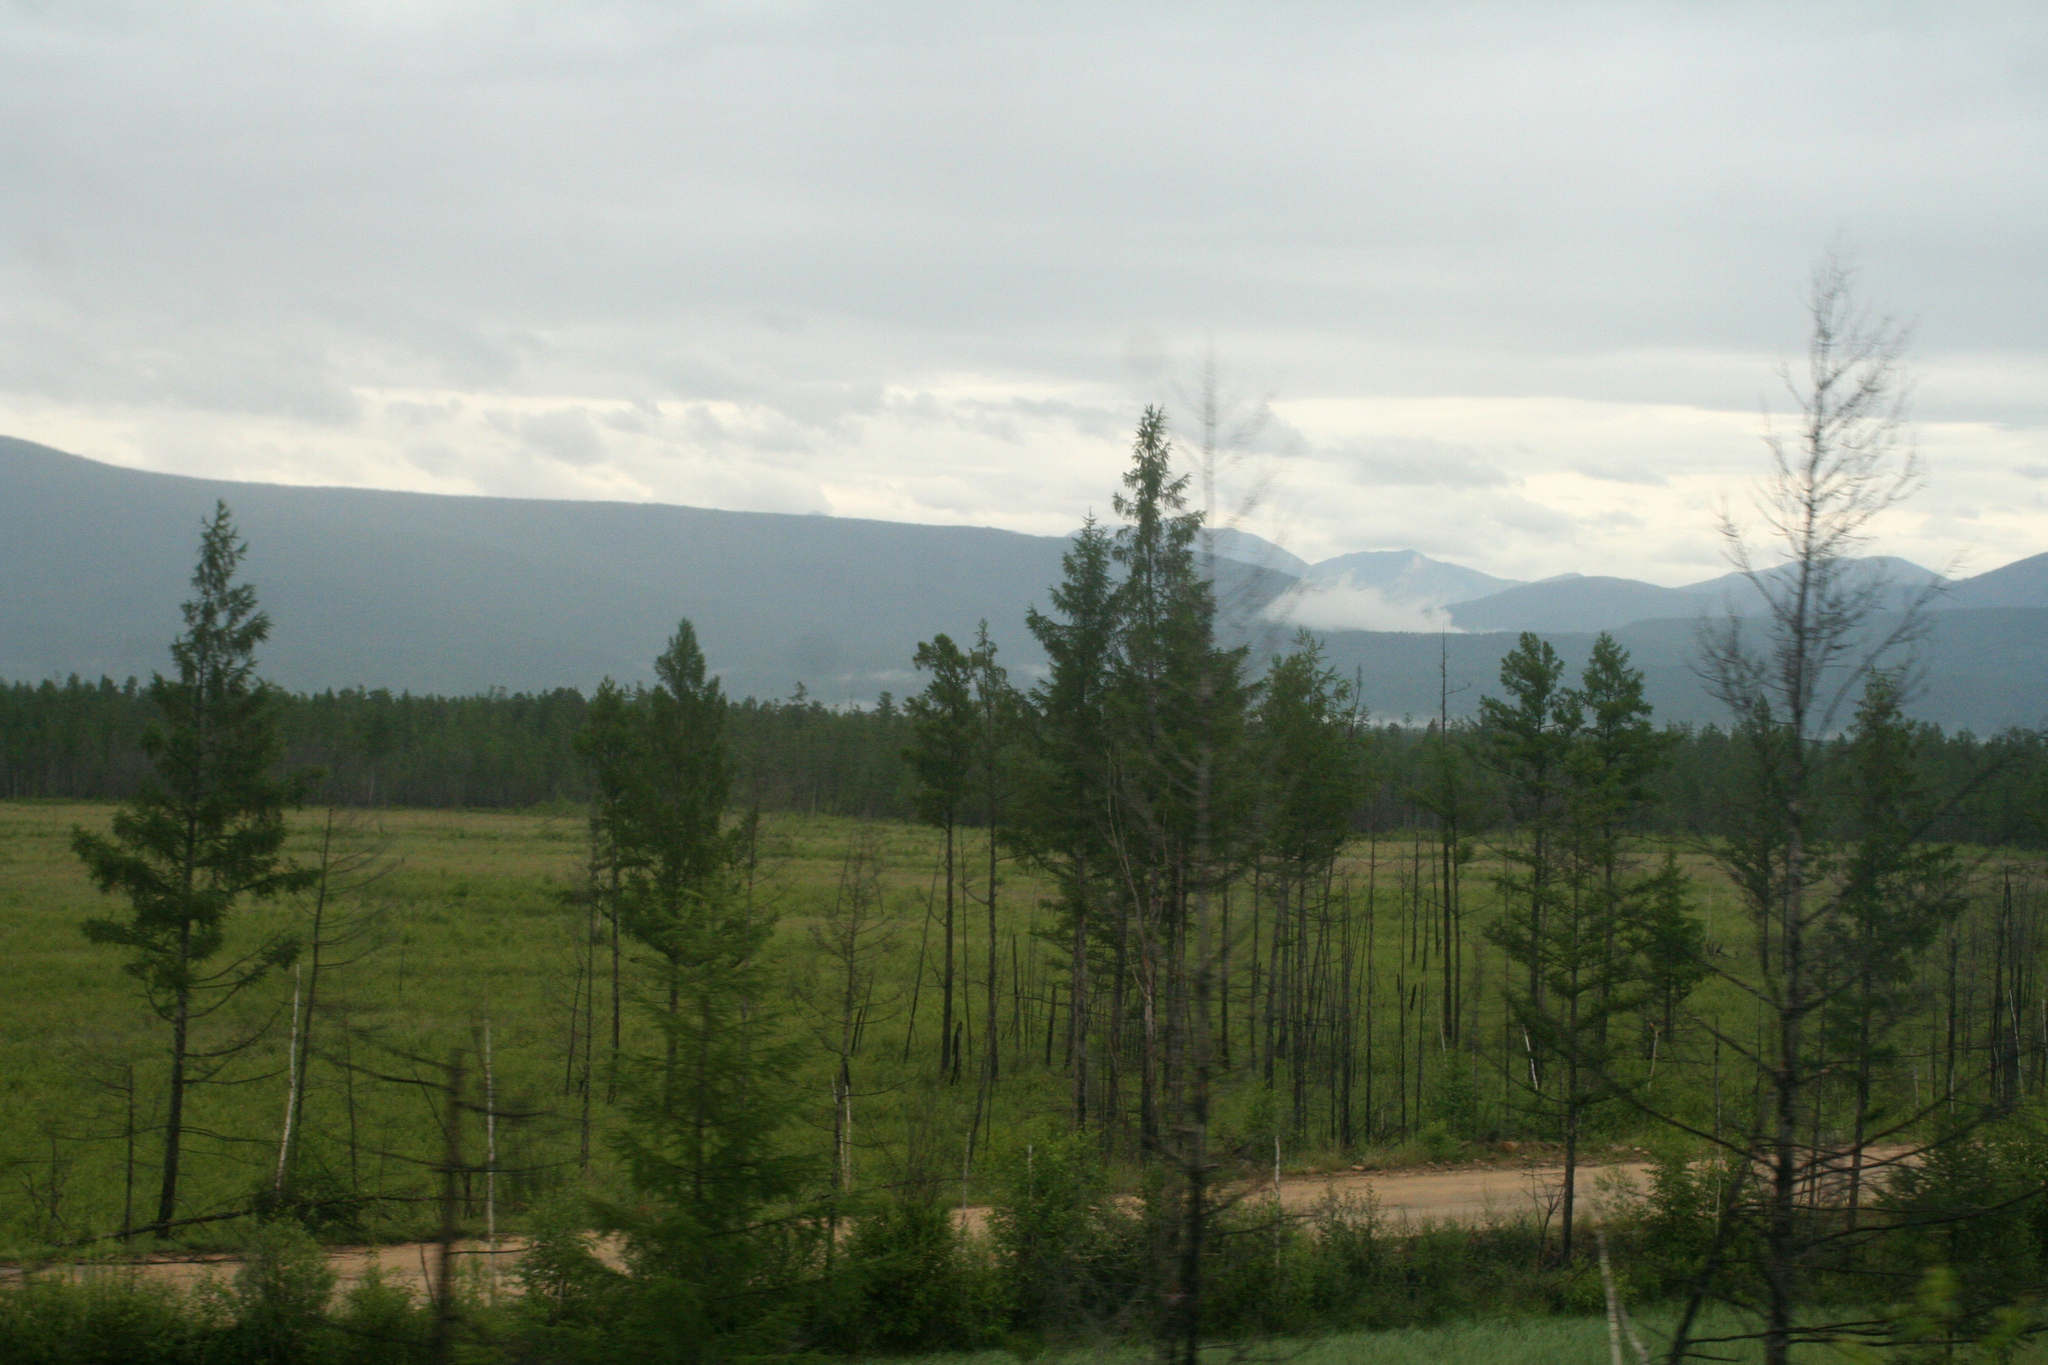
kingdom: Plantae
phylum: Tracheophyta
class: Pinopsida
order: Pinales
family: Pinaceae
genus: Larix
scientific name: Larix gmelinii
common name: Dahurian larch
